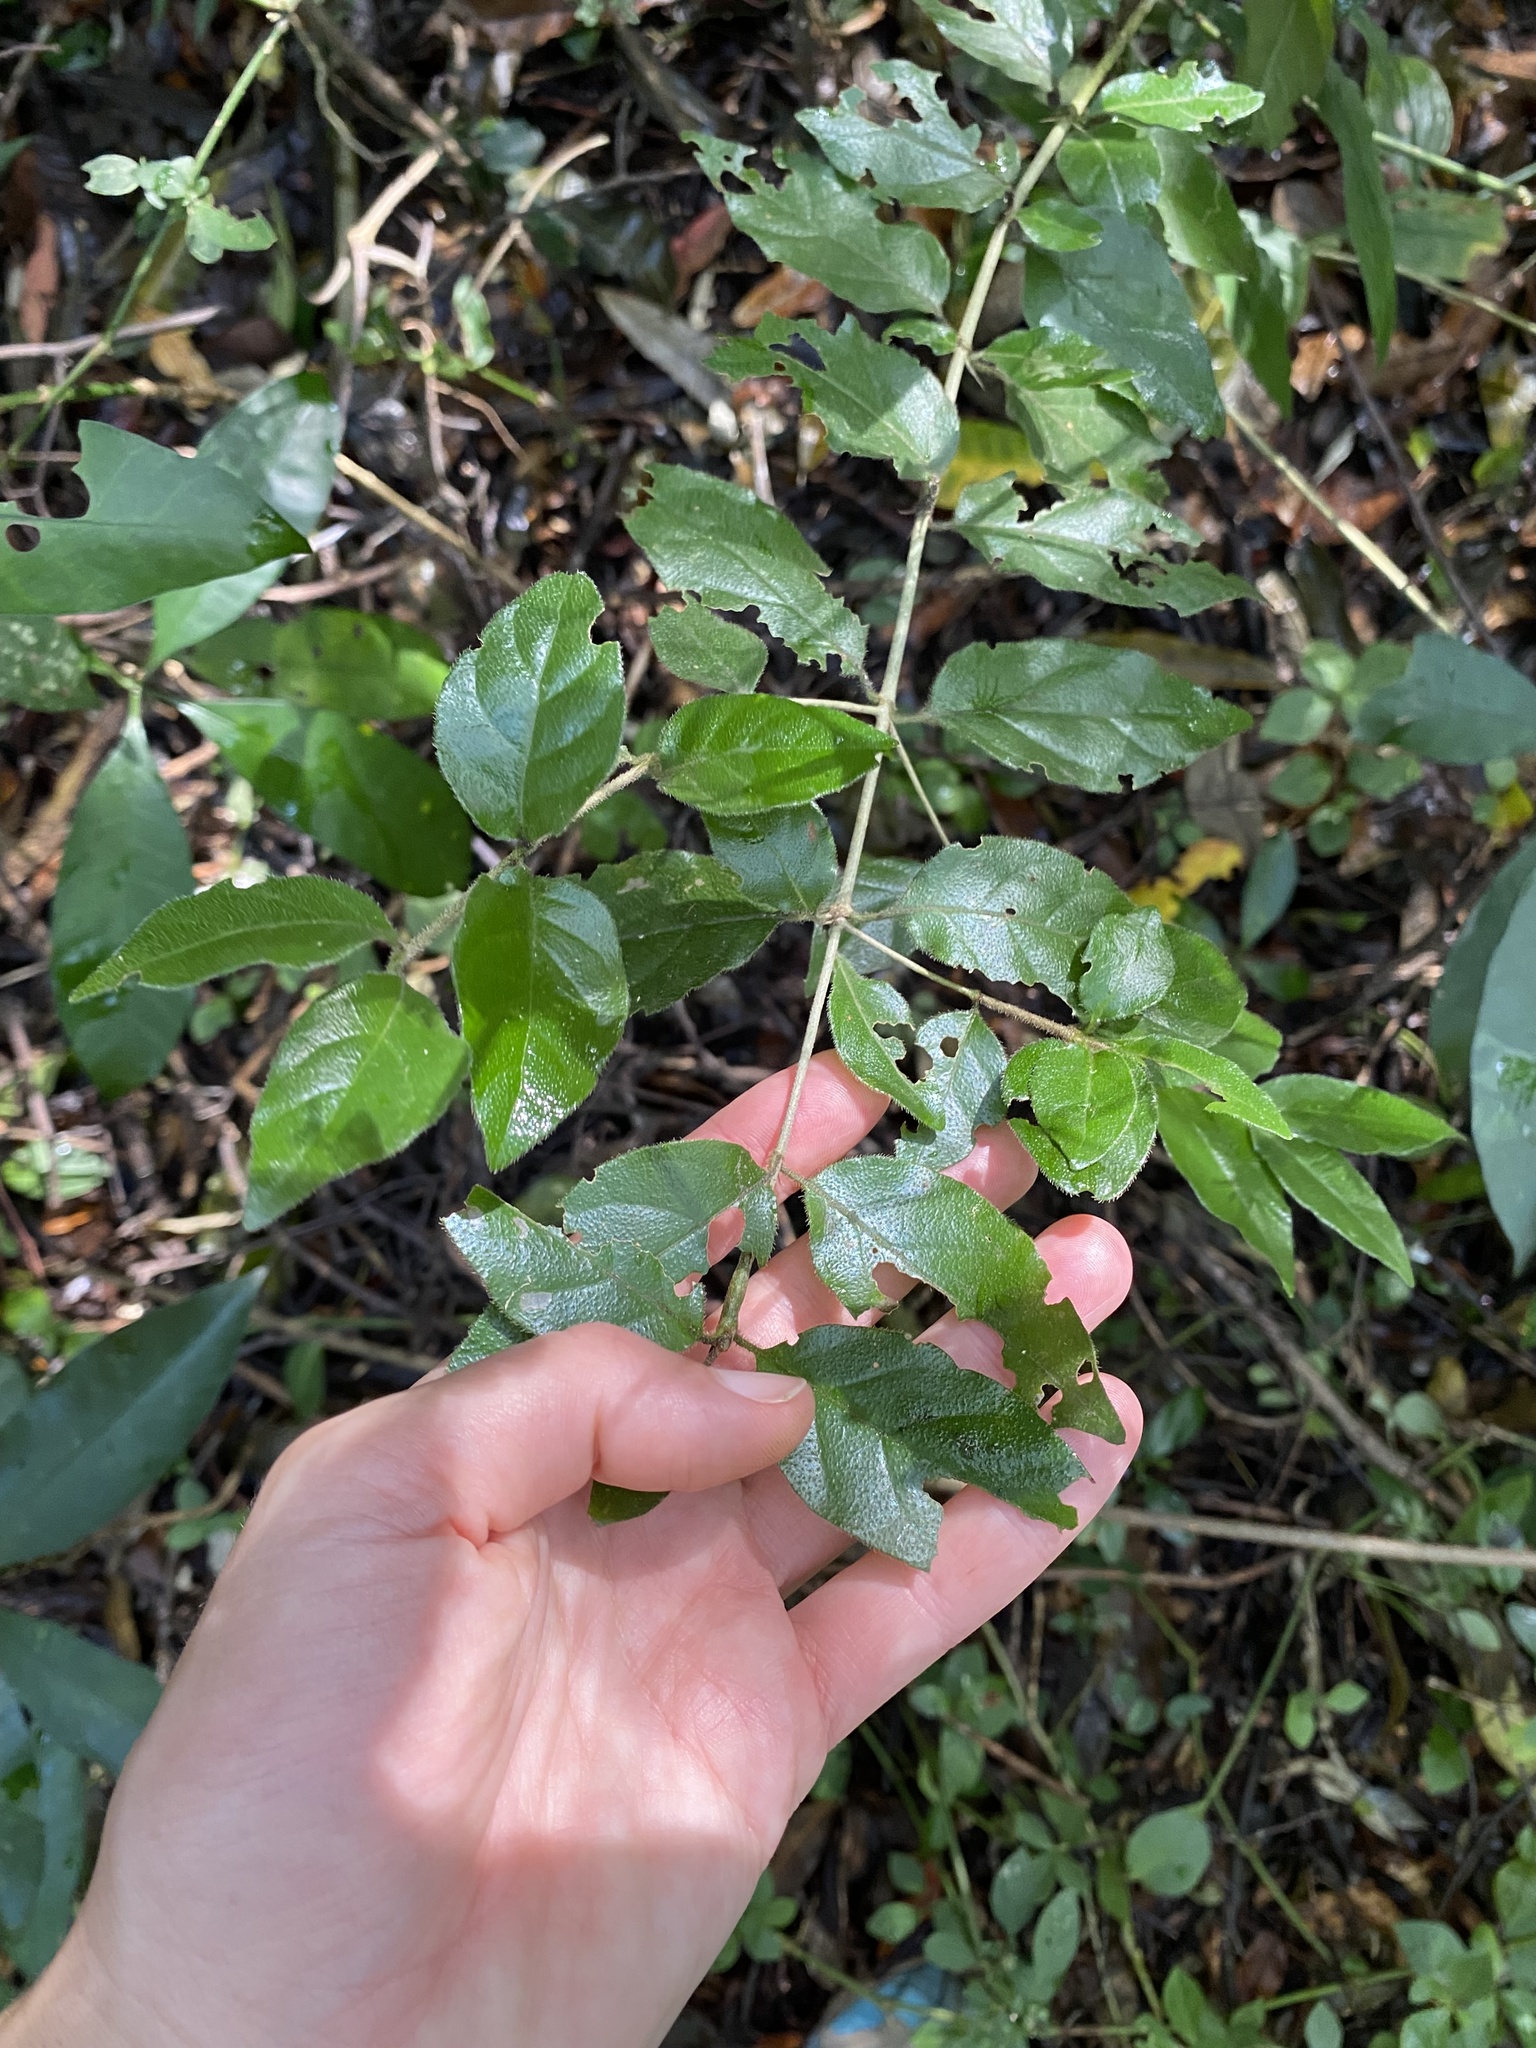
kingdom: Plantae
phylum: Tracheophyta
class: Magnoliopsida
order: Gentianales
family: Rubiaceae
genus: Canthium
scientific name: Canthium ciliatum
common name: Hairy turkey-berry
